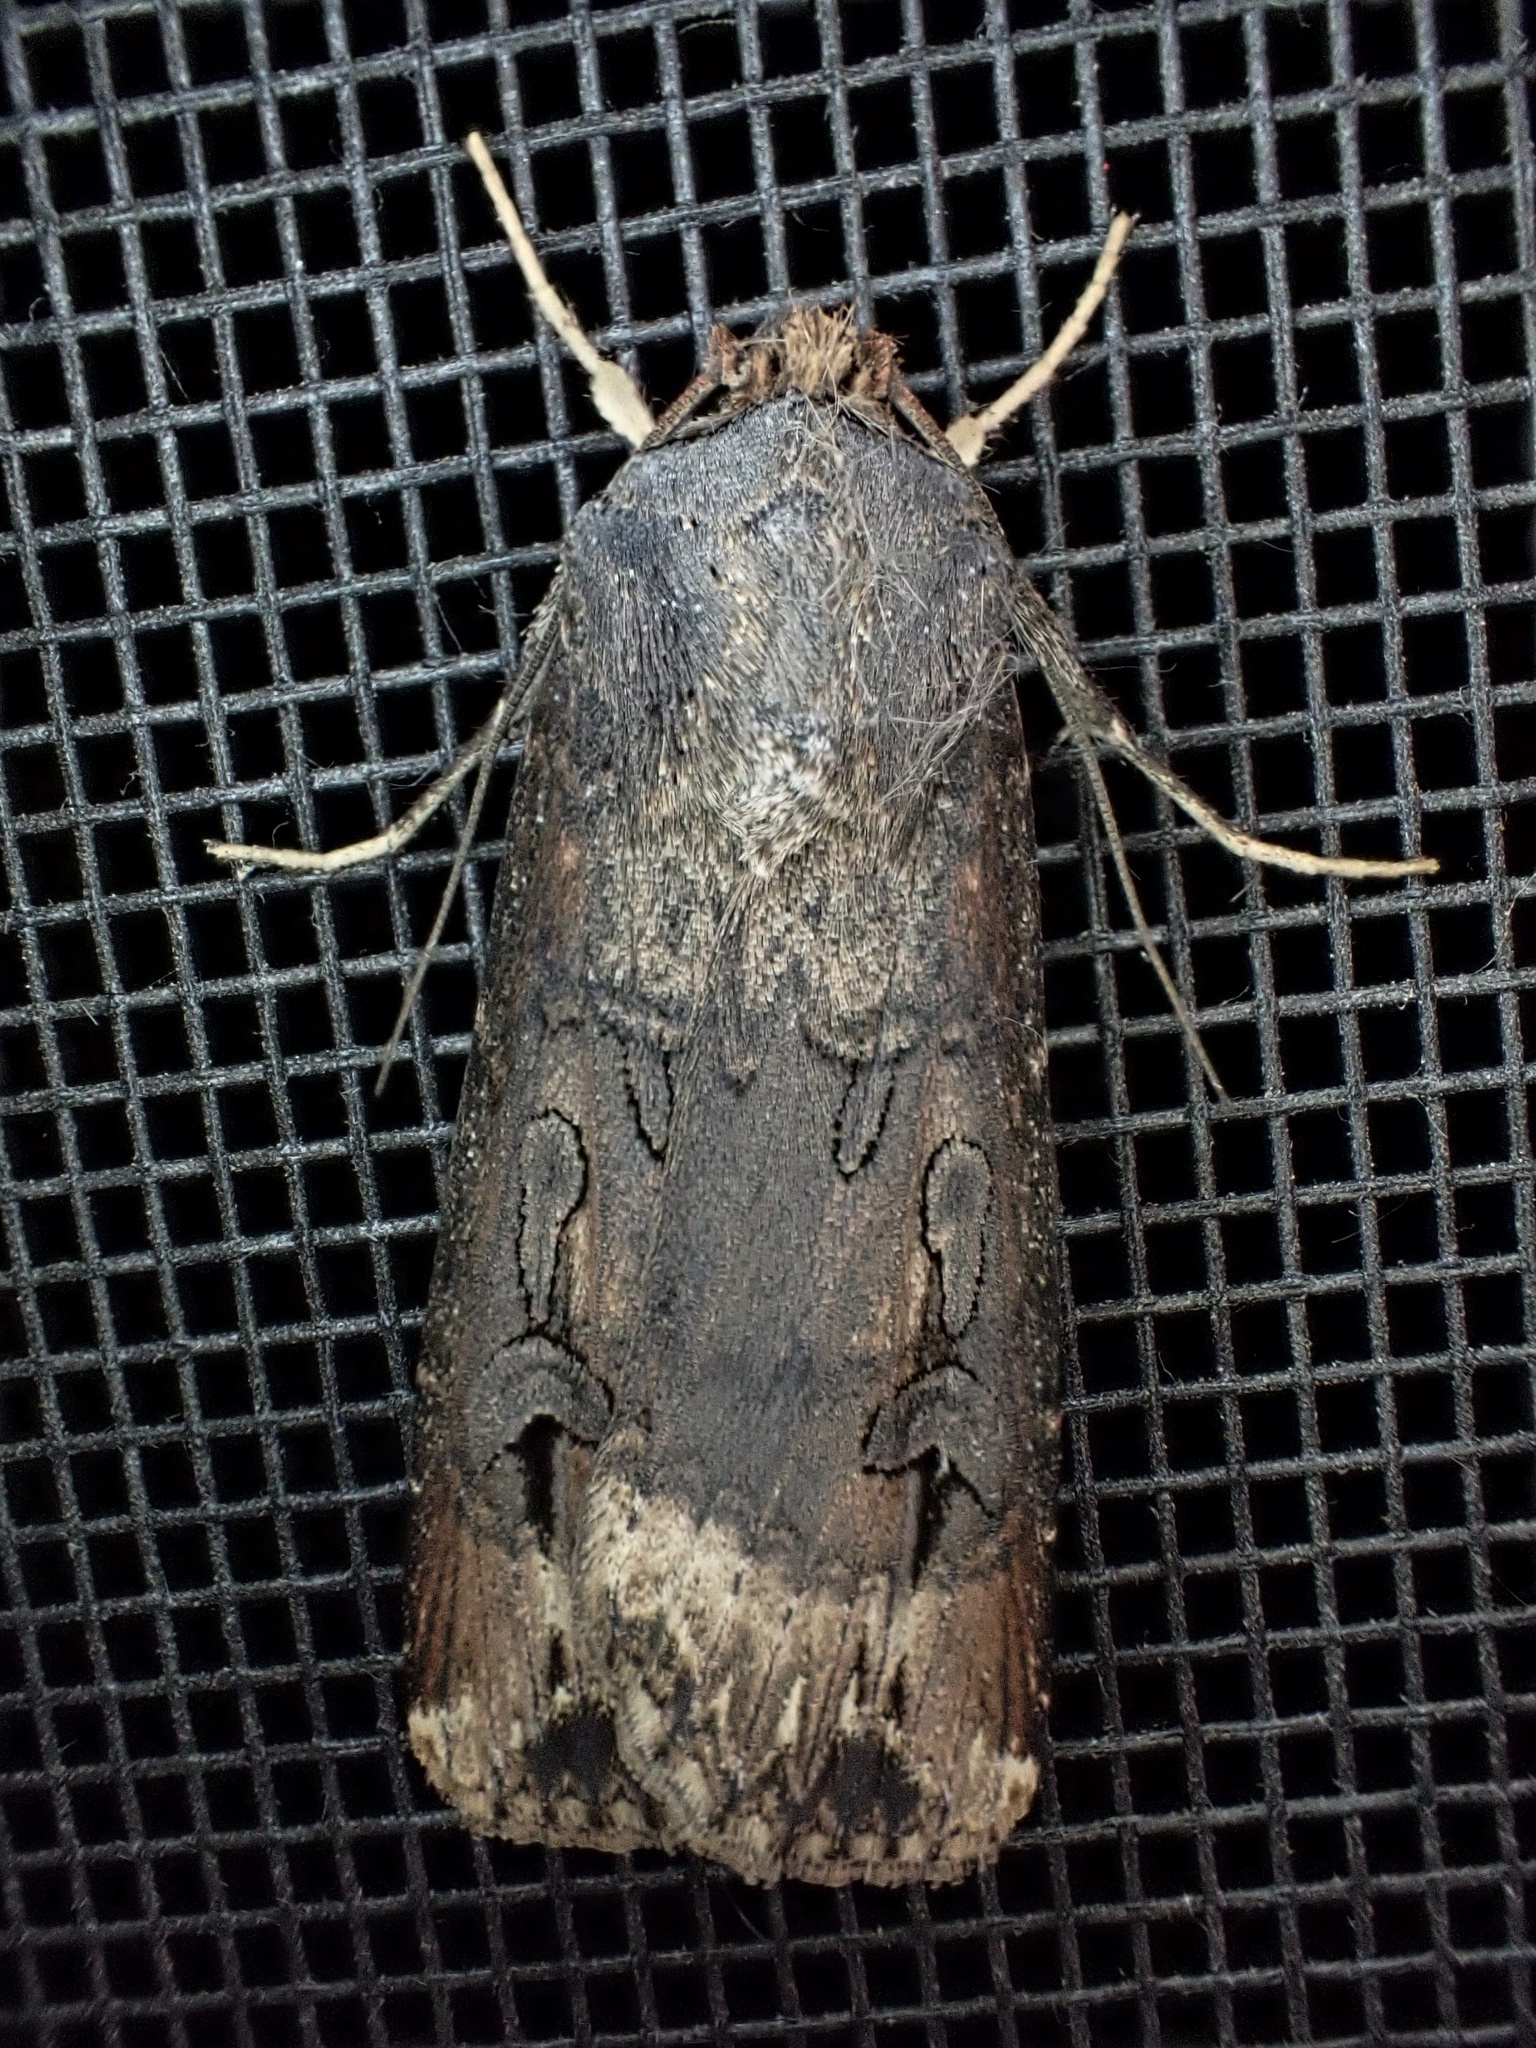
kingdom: Animalia
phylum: Arthropoda
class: Insecta
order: Lepidoptera
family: Noctuidae
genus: Agrotis
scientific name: Agrotis ipsilon
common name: Dark sword-grass
